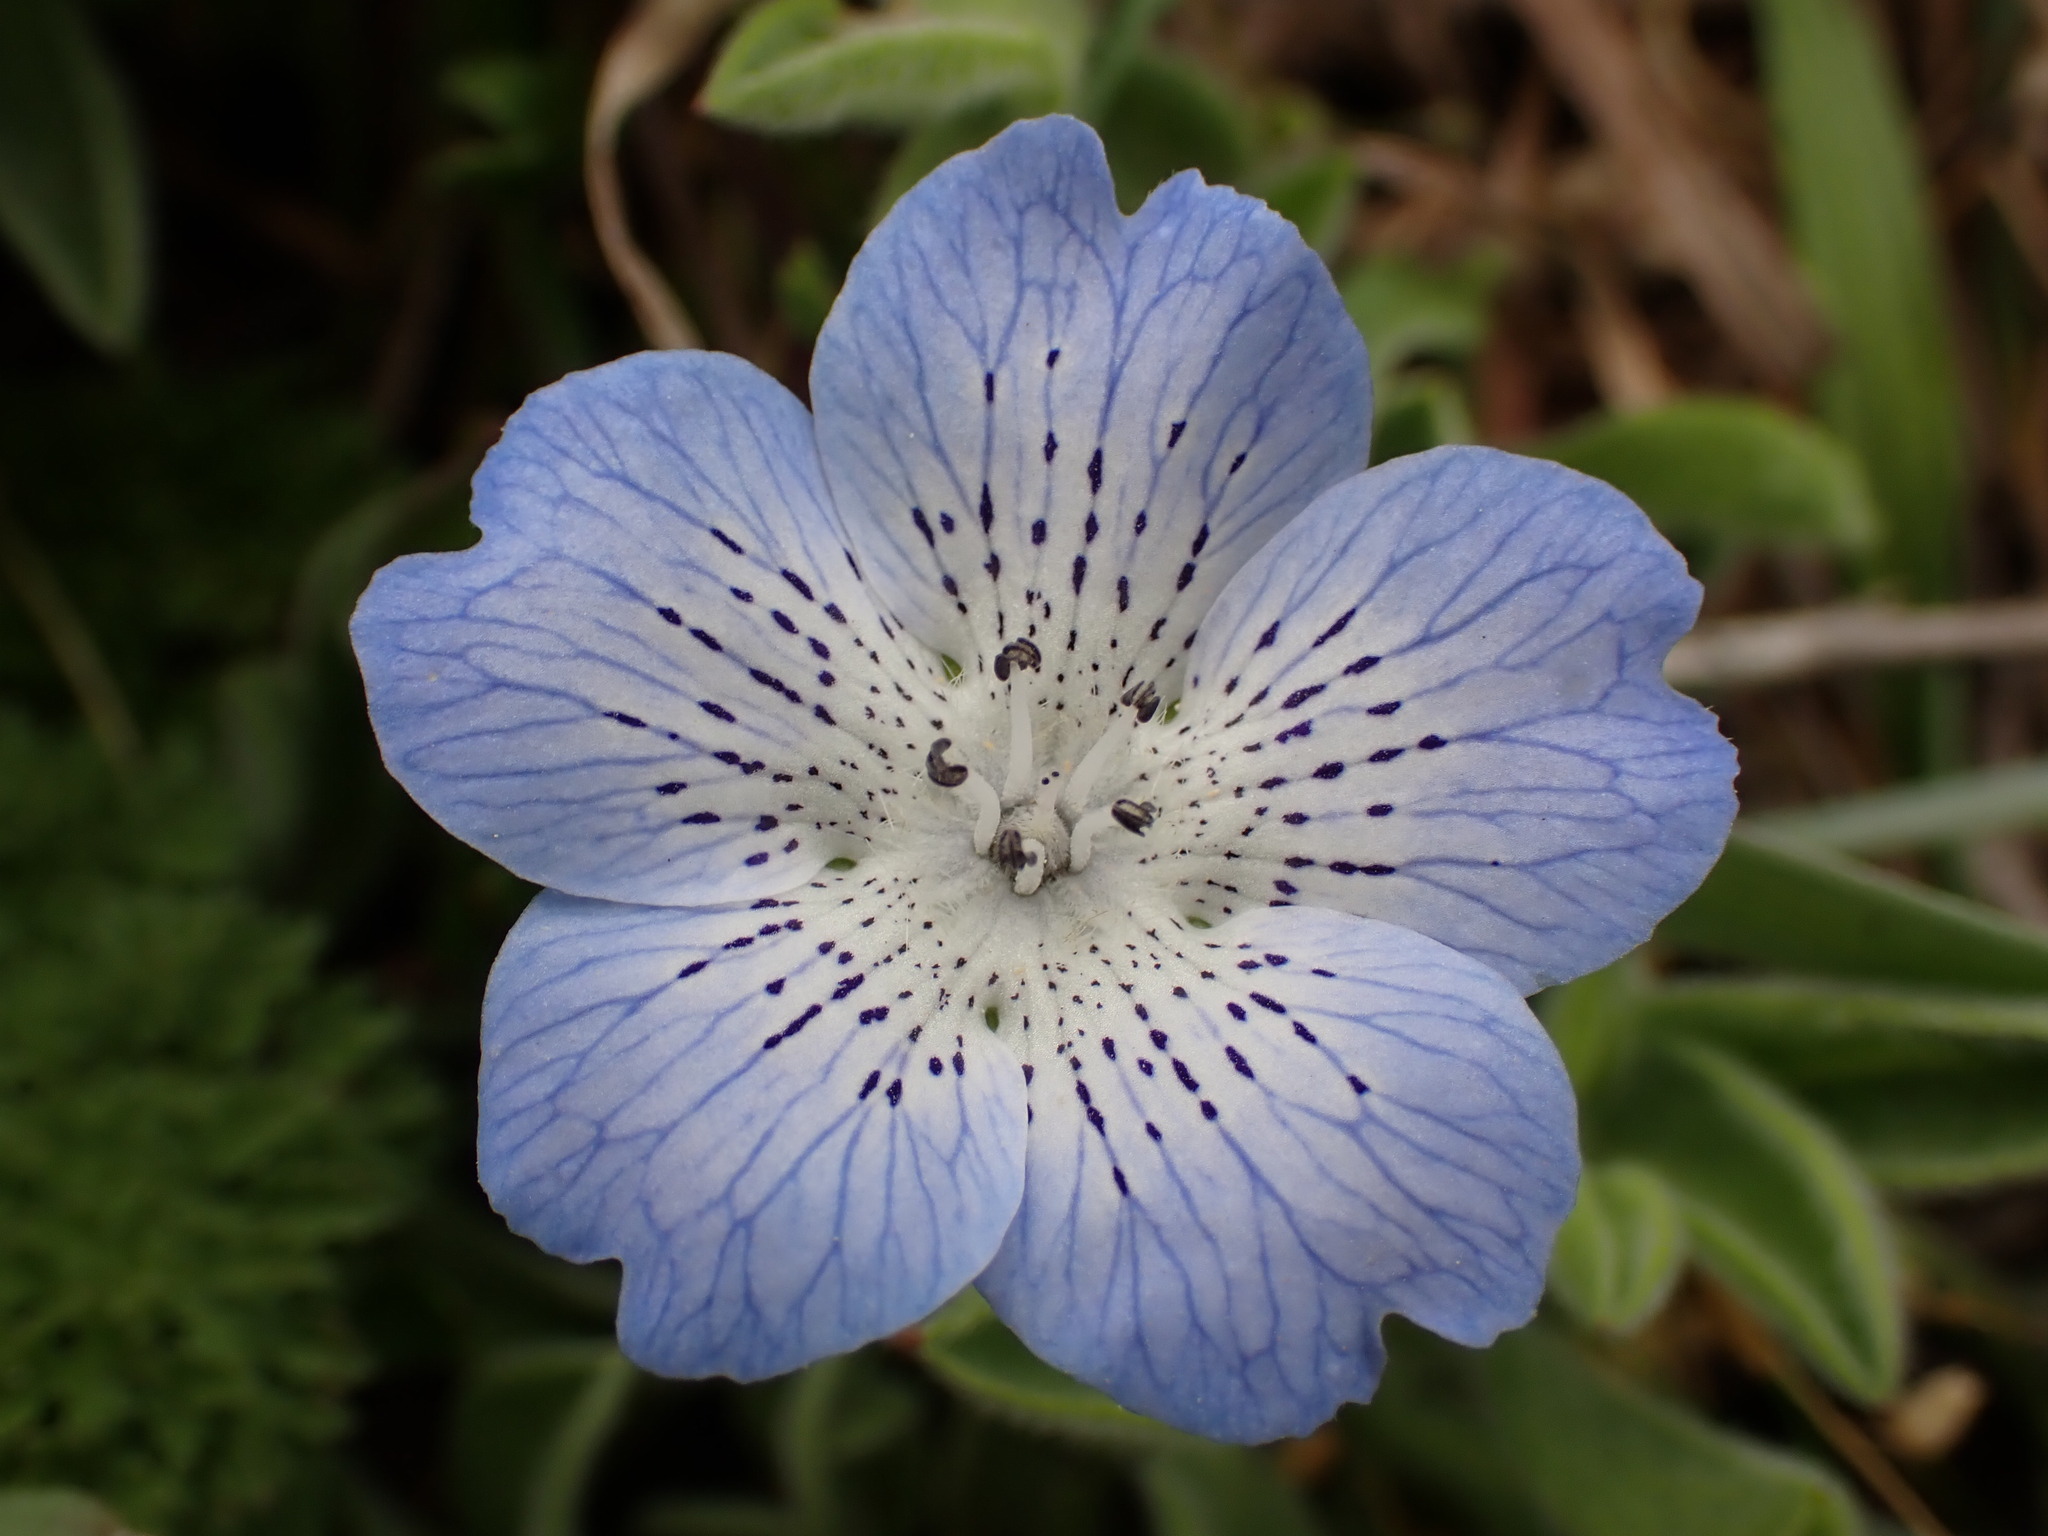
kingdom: Plantae
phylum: Tracheophyta
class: Magnoliopsida
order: Boraginales
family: Hydrophyllaceae
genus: Nemophila
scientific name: Nemophila menziesii
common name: Baby's-blue-eyes
